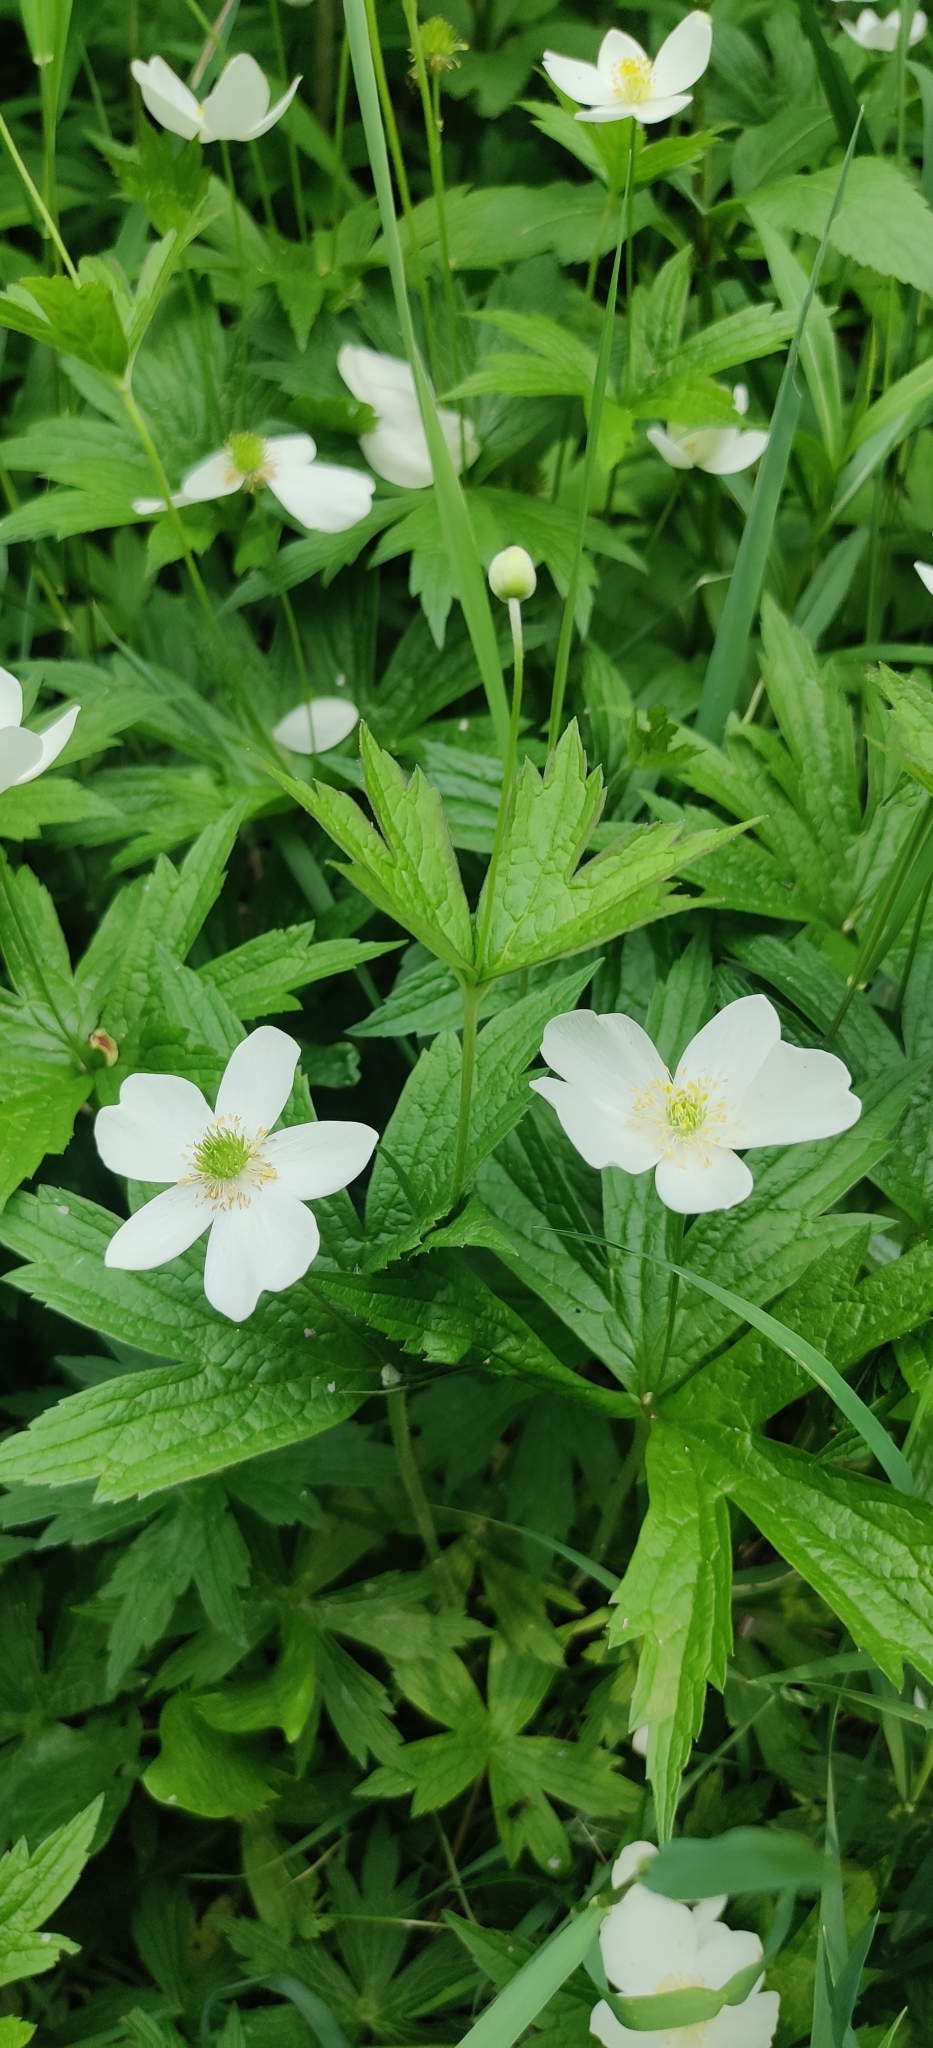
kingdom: Plantae
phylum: Tracheophyta
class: Magnoliopsida
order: Ranunculales
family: Ranunculaceae
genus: Anemonastrum
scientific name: Anemonastrum canadense
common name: Canada anemone
